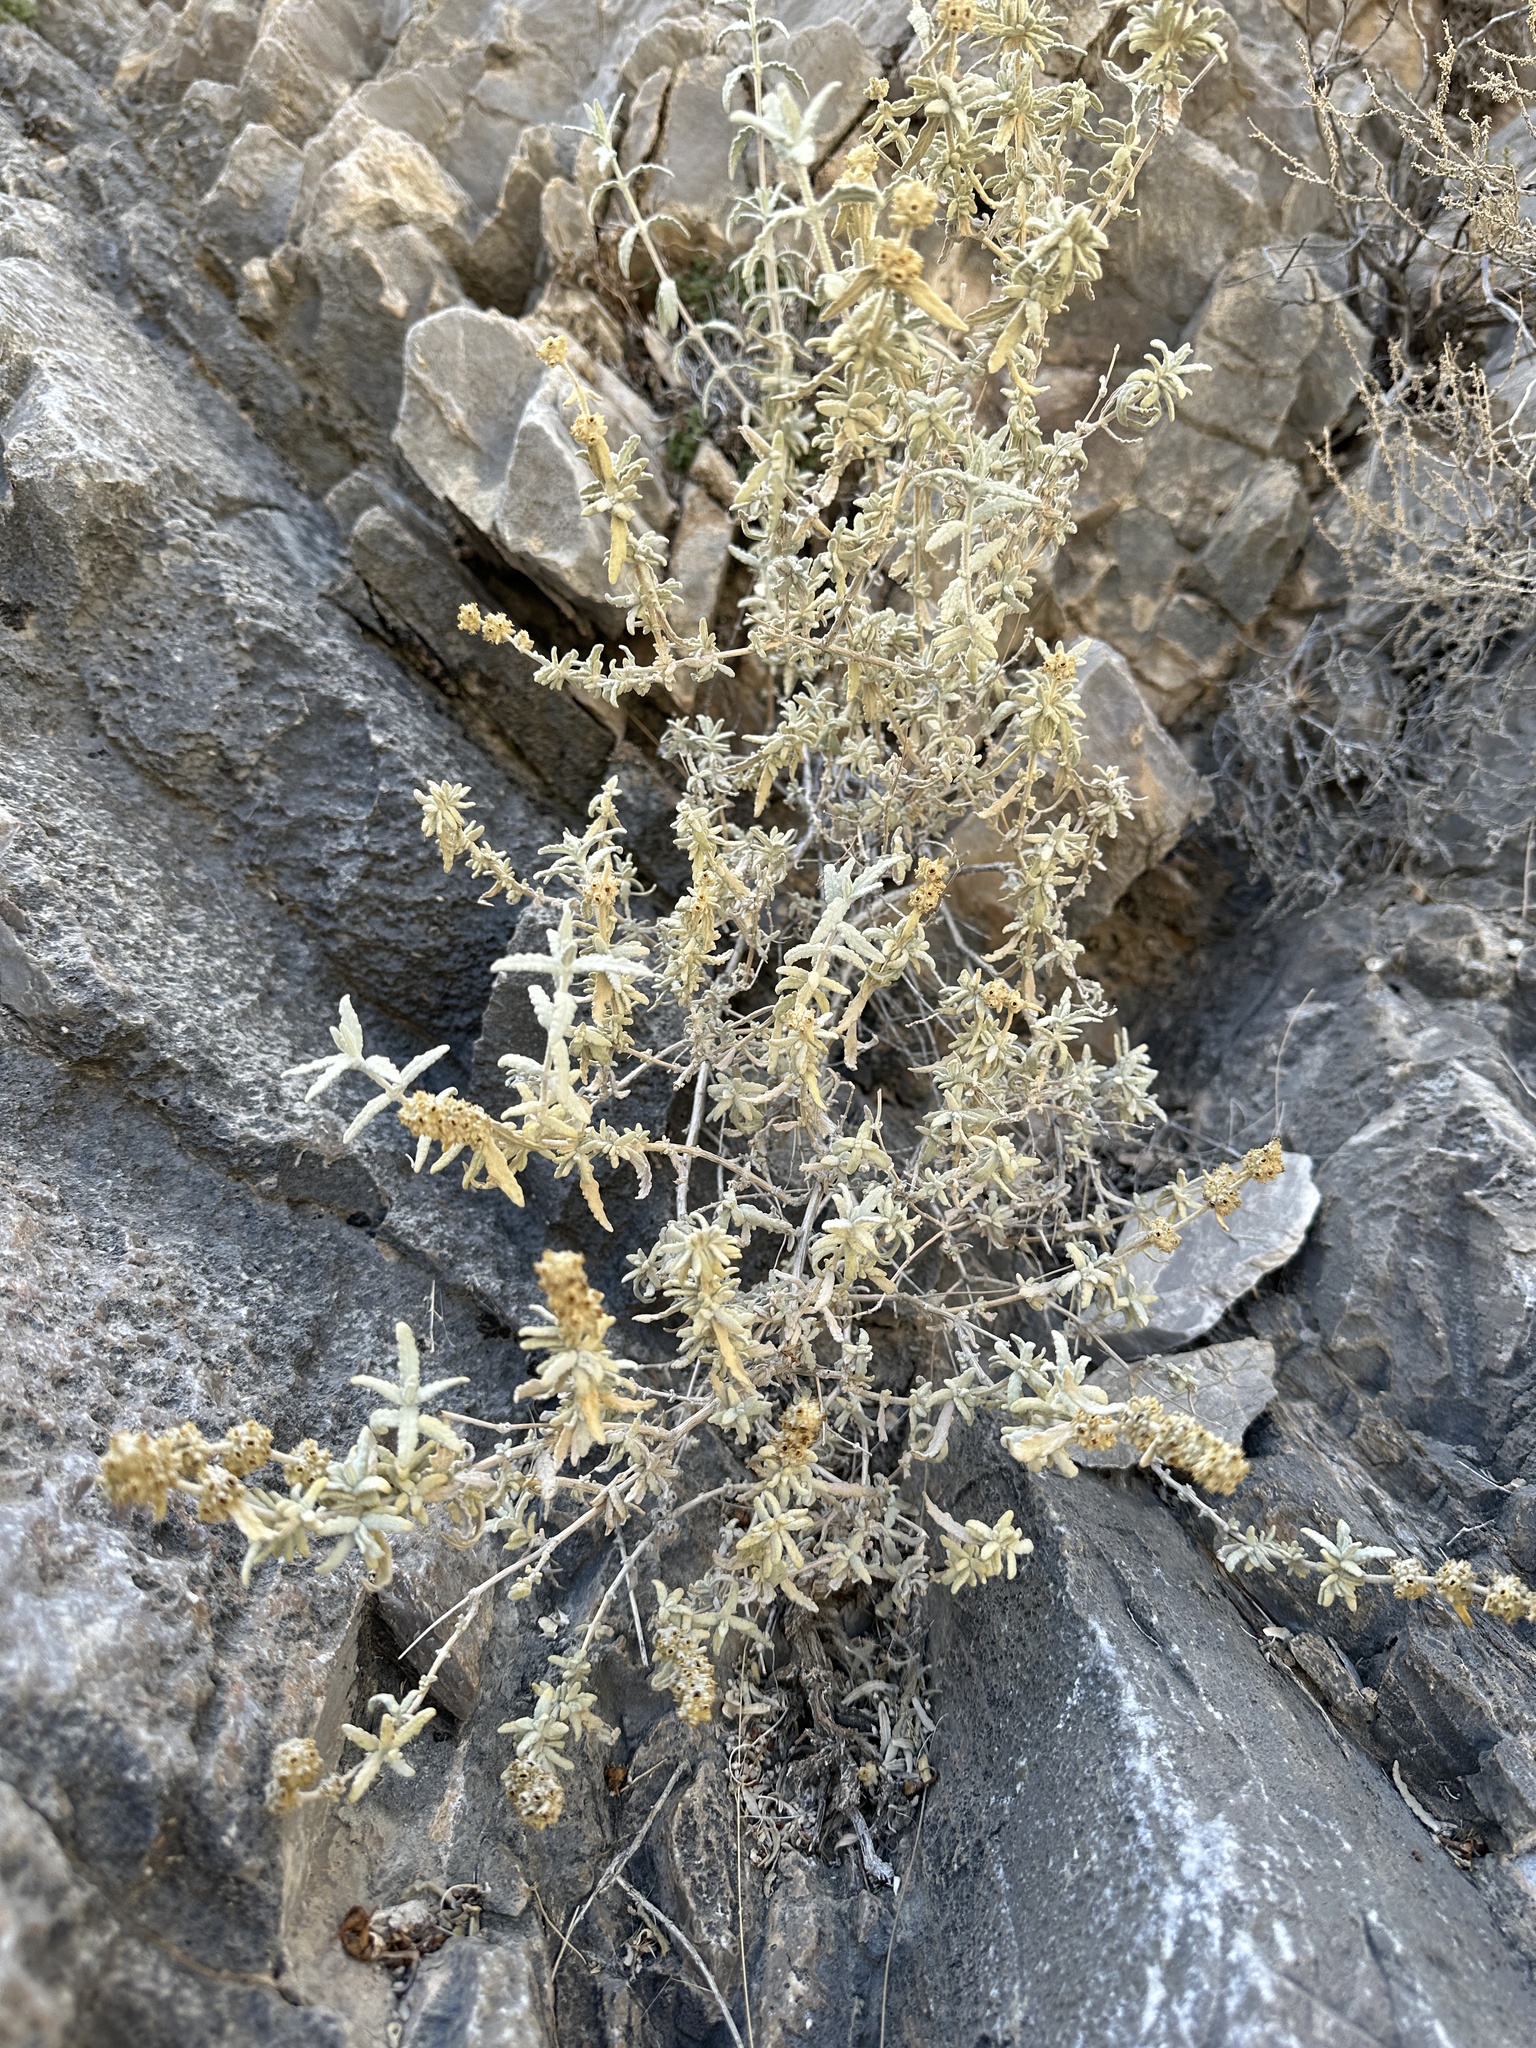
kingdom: Plantae
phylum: Tracheophyta
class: Magnoliopsida
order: Lamiales
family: Scrophulariaceae
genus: Buddleja
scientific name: Buddleja utahensis
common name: Utah butterfly-bush
